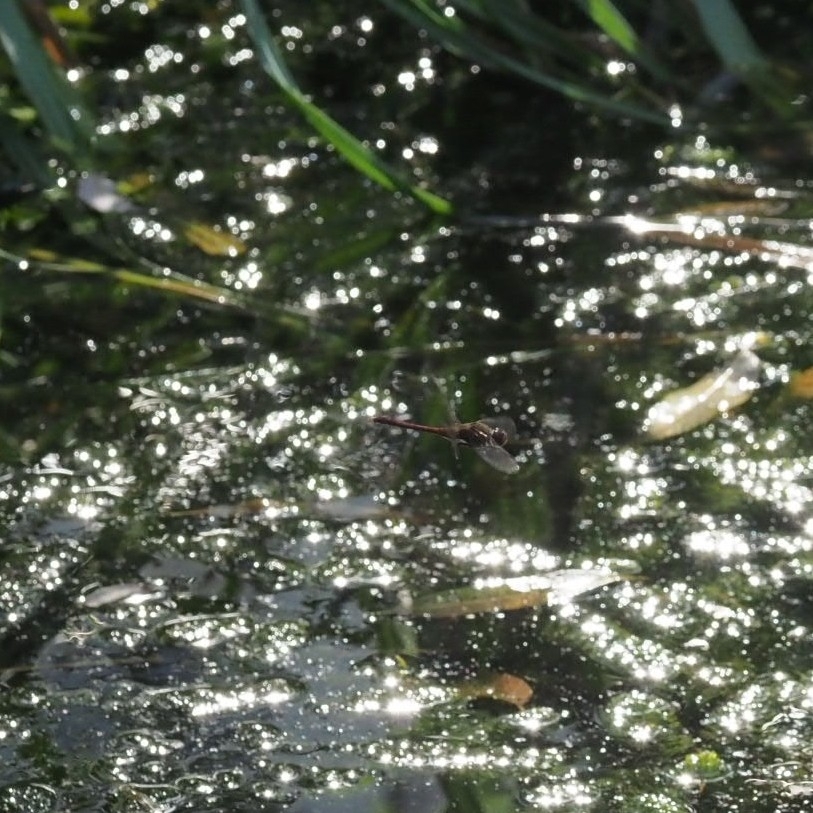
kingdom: Animalia
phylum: Arthropoda
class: Insecta
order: Odonata
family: Libellulidae
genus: Sympetrum
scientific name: Sympetrum
